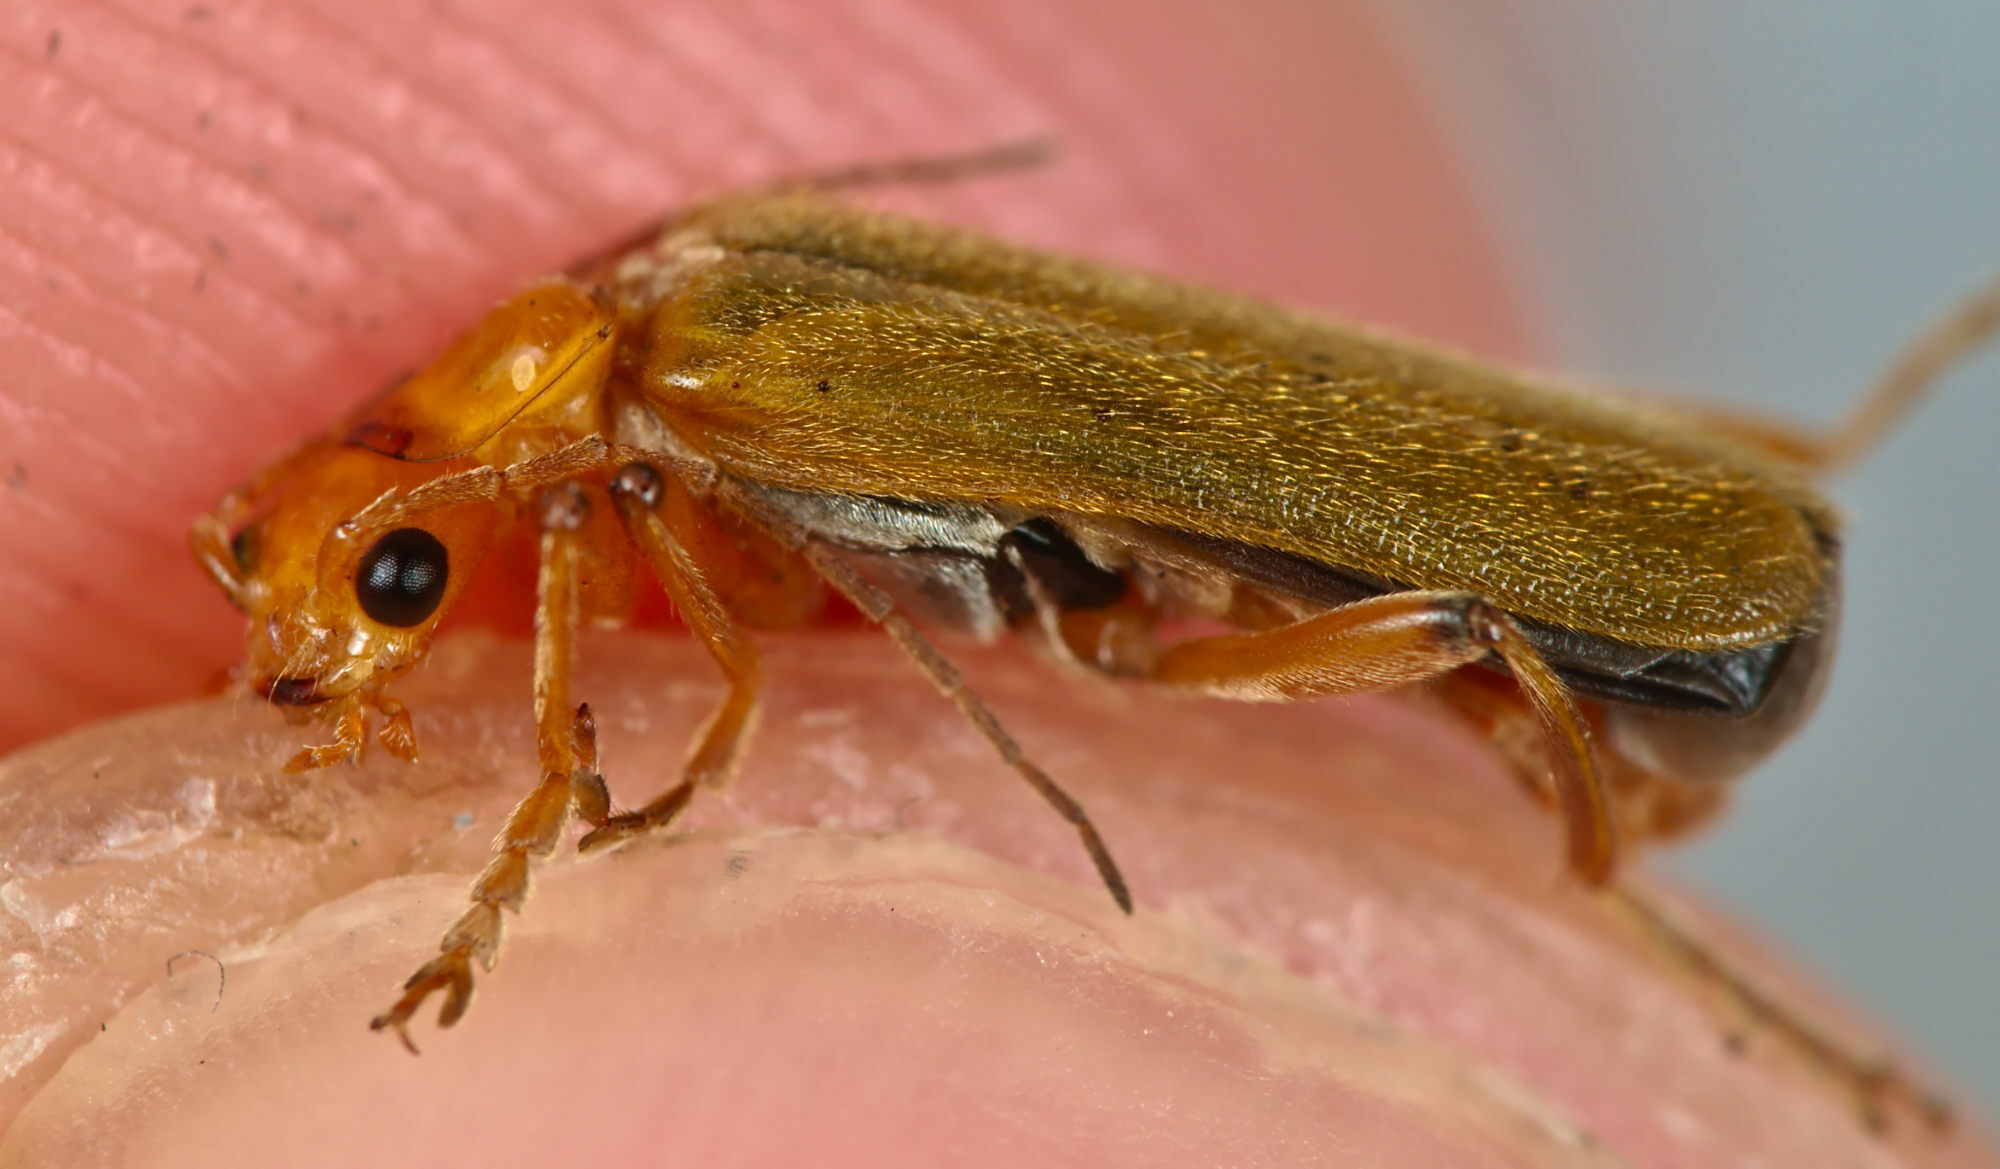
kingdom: Animalia
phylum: Arthropoda
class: Insecta
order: Coleoptera
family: Cantharidae
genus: Cantharis
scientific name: Cantharis cryptica
